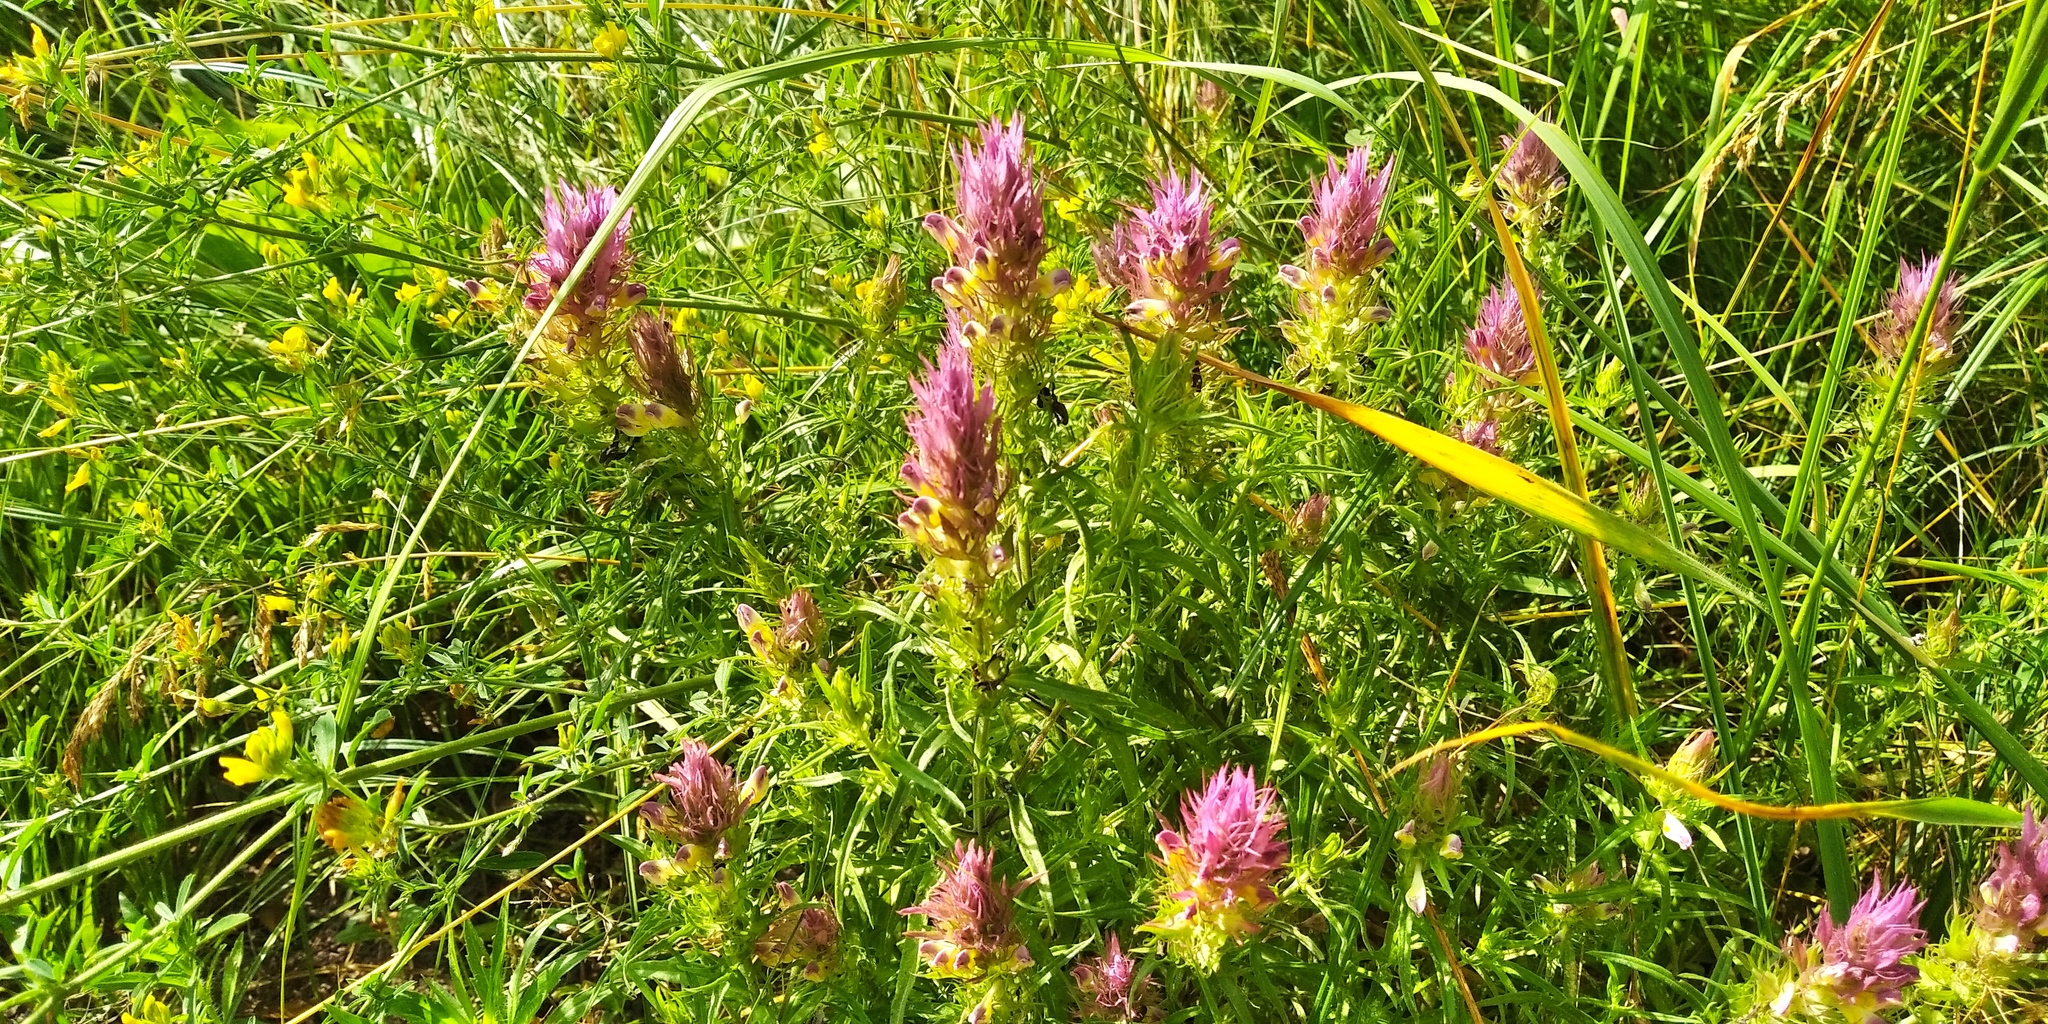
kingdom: Plantae
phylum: Tracheophyta
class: Magnoliopsida
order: Lamiales
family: Orobanchaceae
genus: Melampyrum
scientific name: Melampyrum arvense
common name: Field cow-wheat
